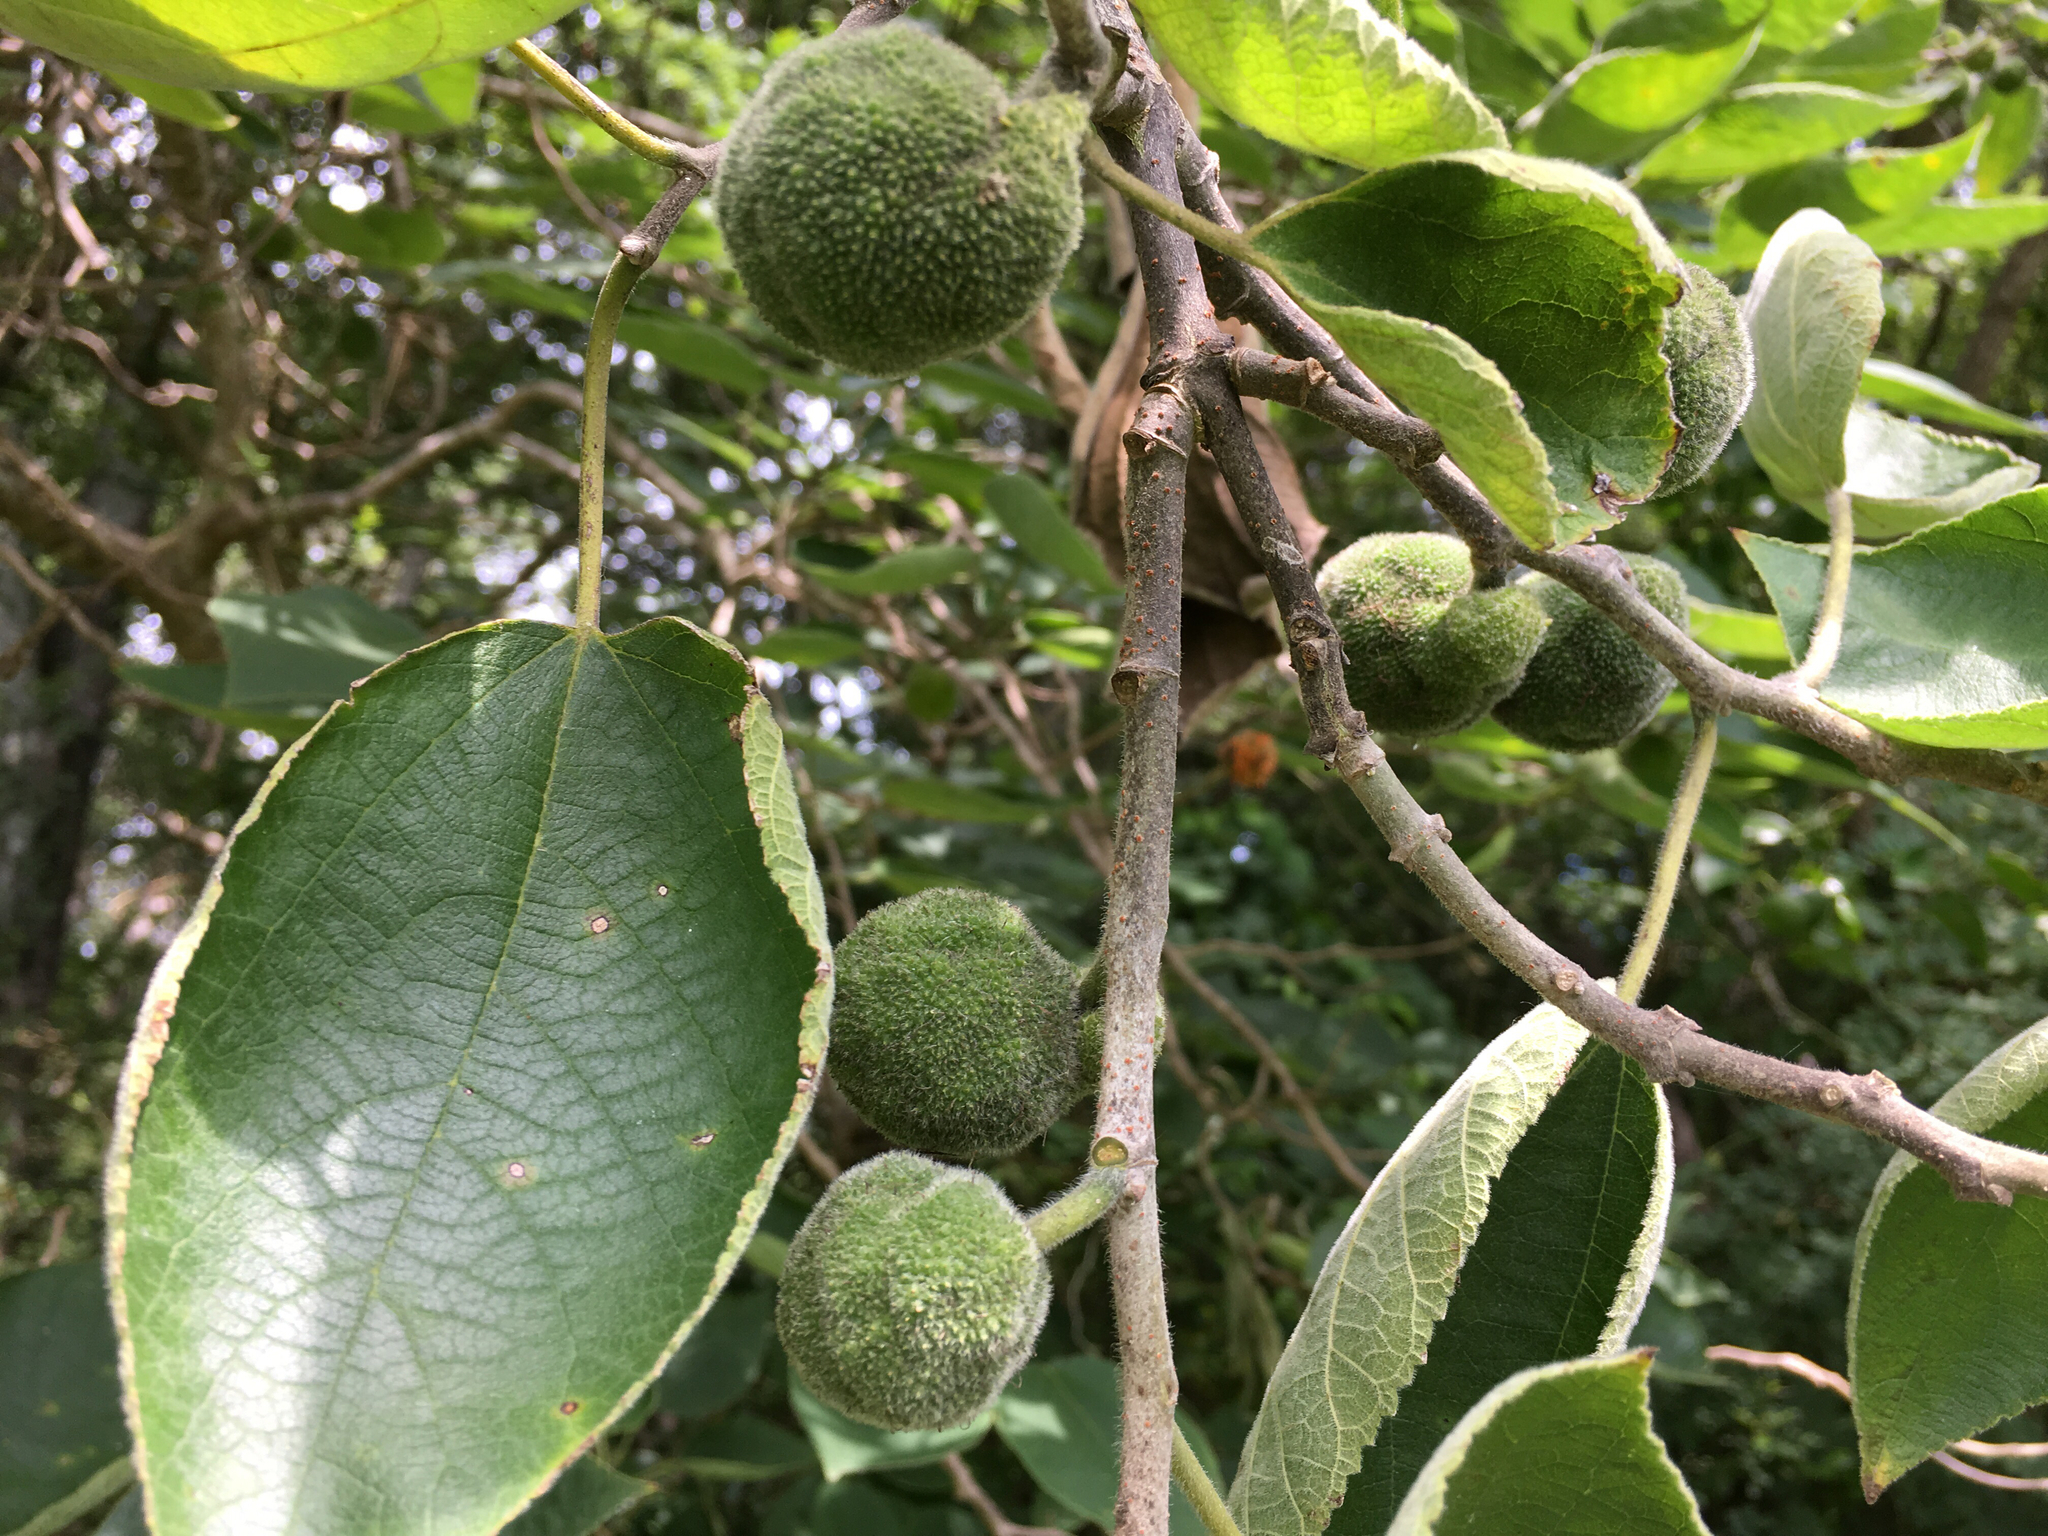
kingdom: Plantae
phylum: Tracheophyta
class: Magnoliopsida
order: Rosales
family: Moraceae
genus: Broussonetia
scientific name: Broussonetia papyrifera
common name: Paper mulberry
